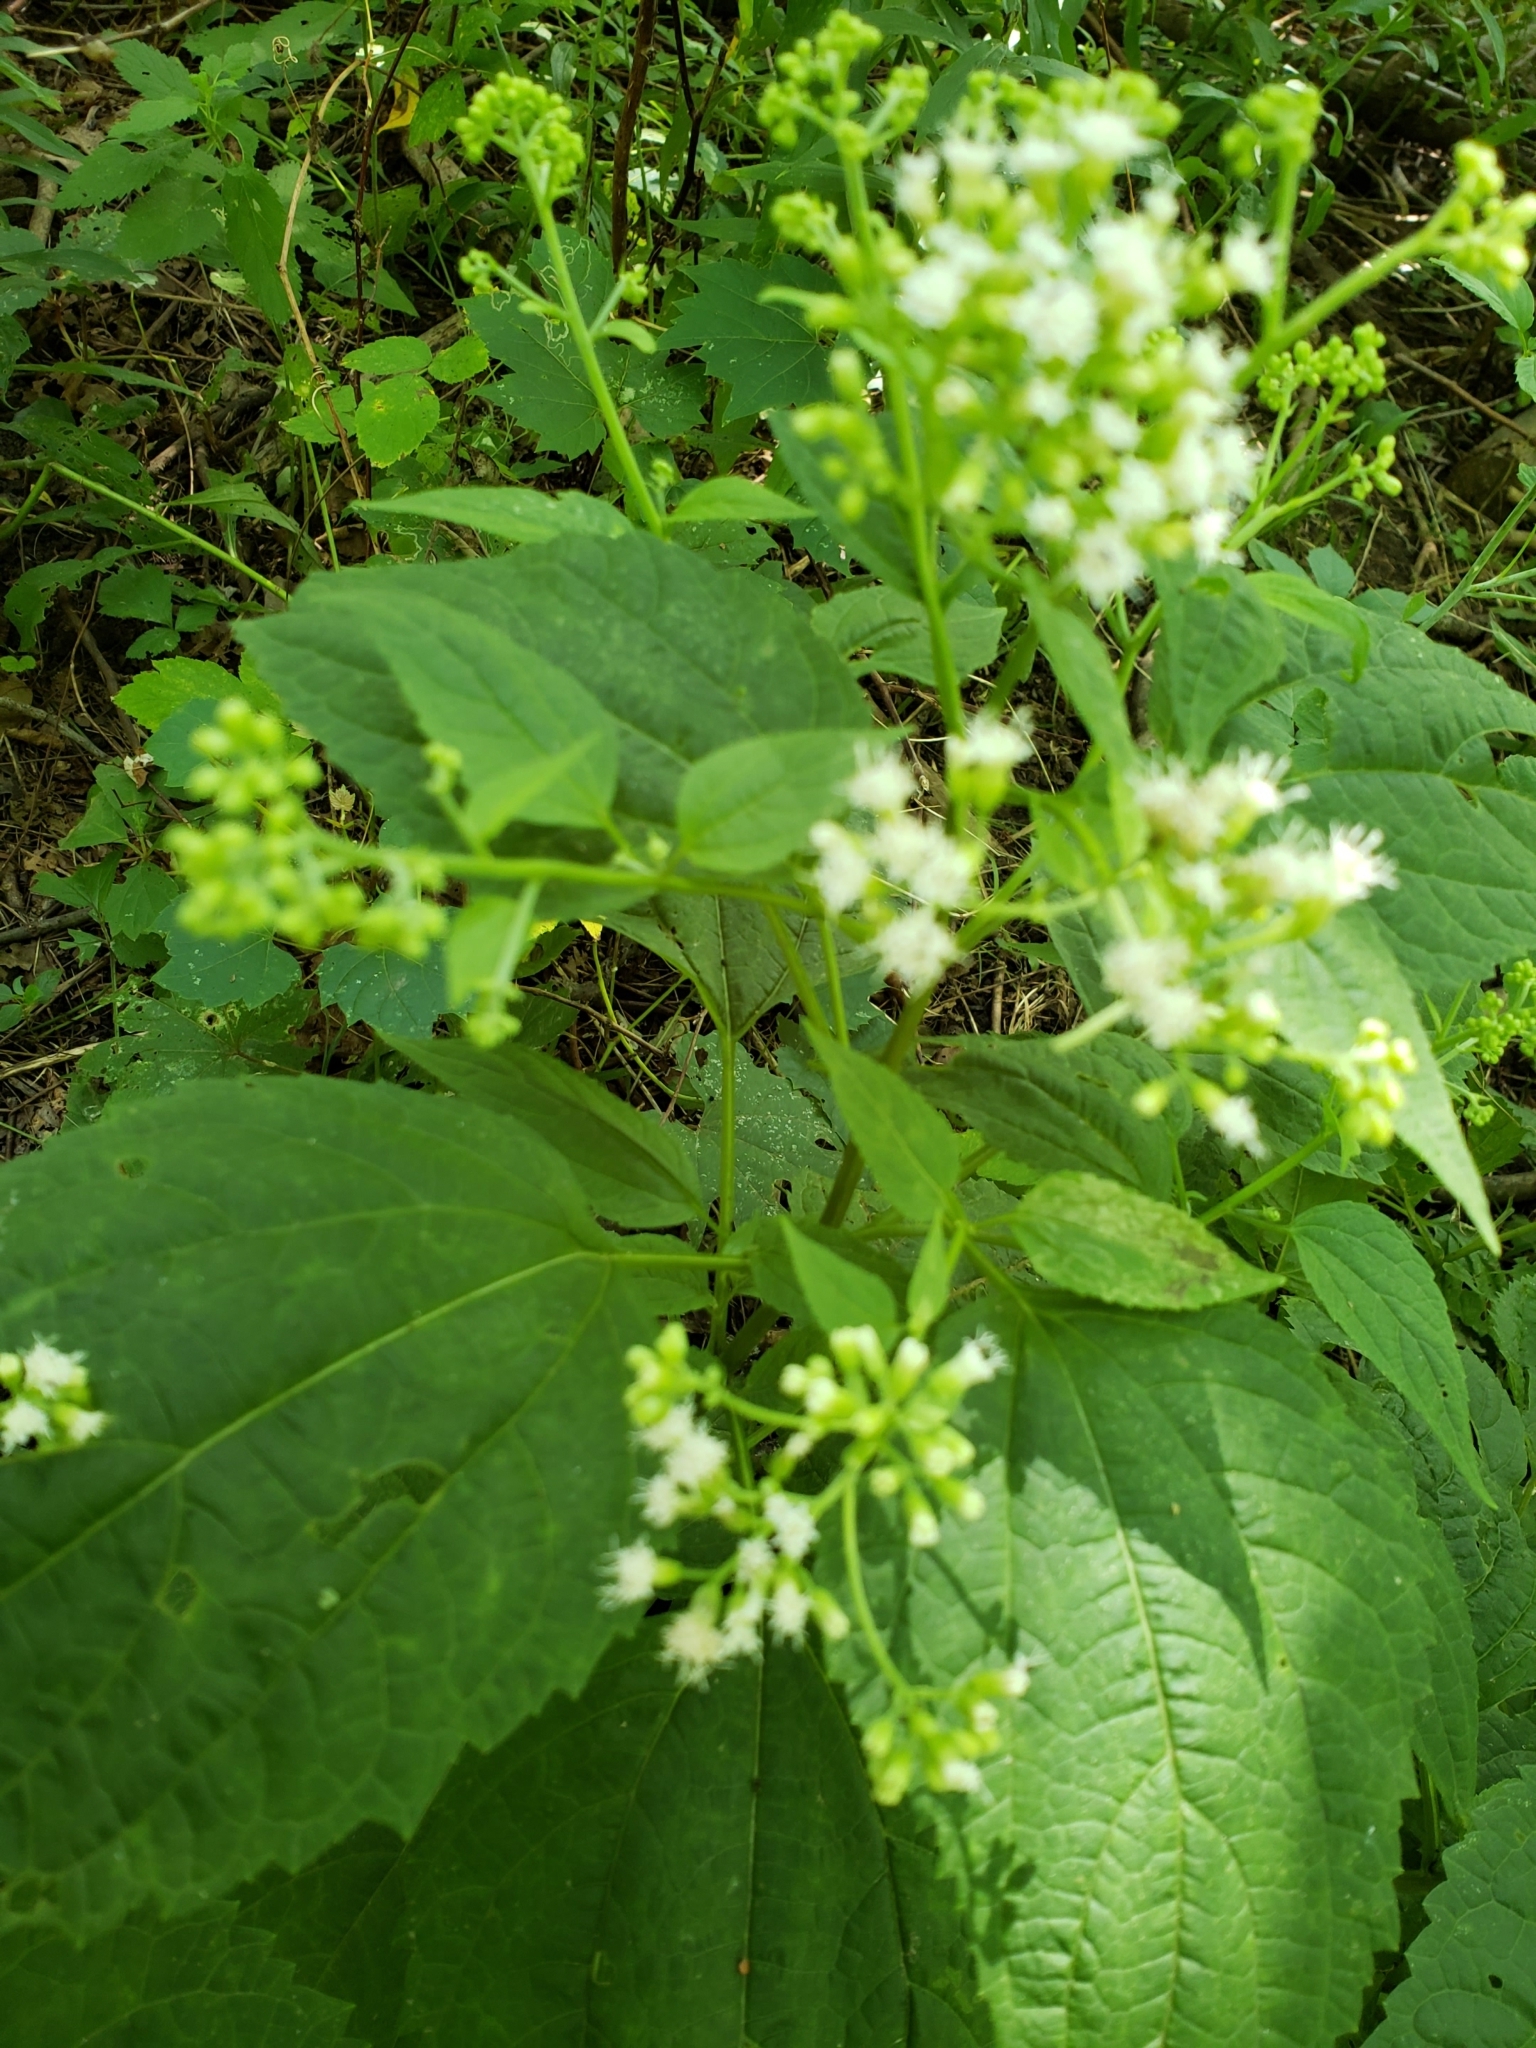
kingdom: Plantae
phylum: Tracheophyta
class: Magnoliopsida
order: Asterales
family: Asteraceae
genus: Ageratina
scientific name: Ageratina altissima
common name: White snakeroot
